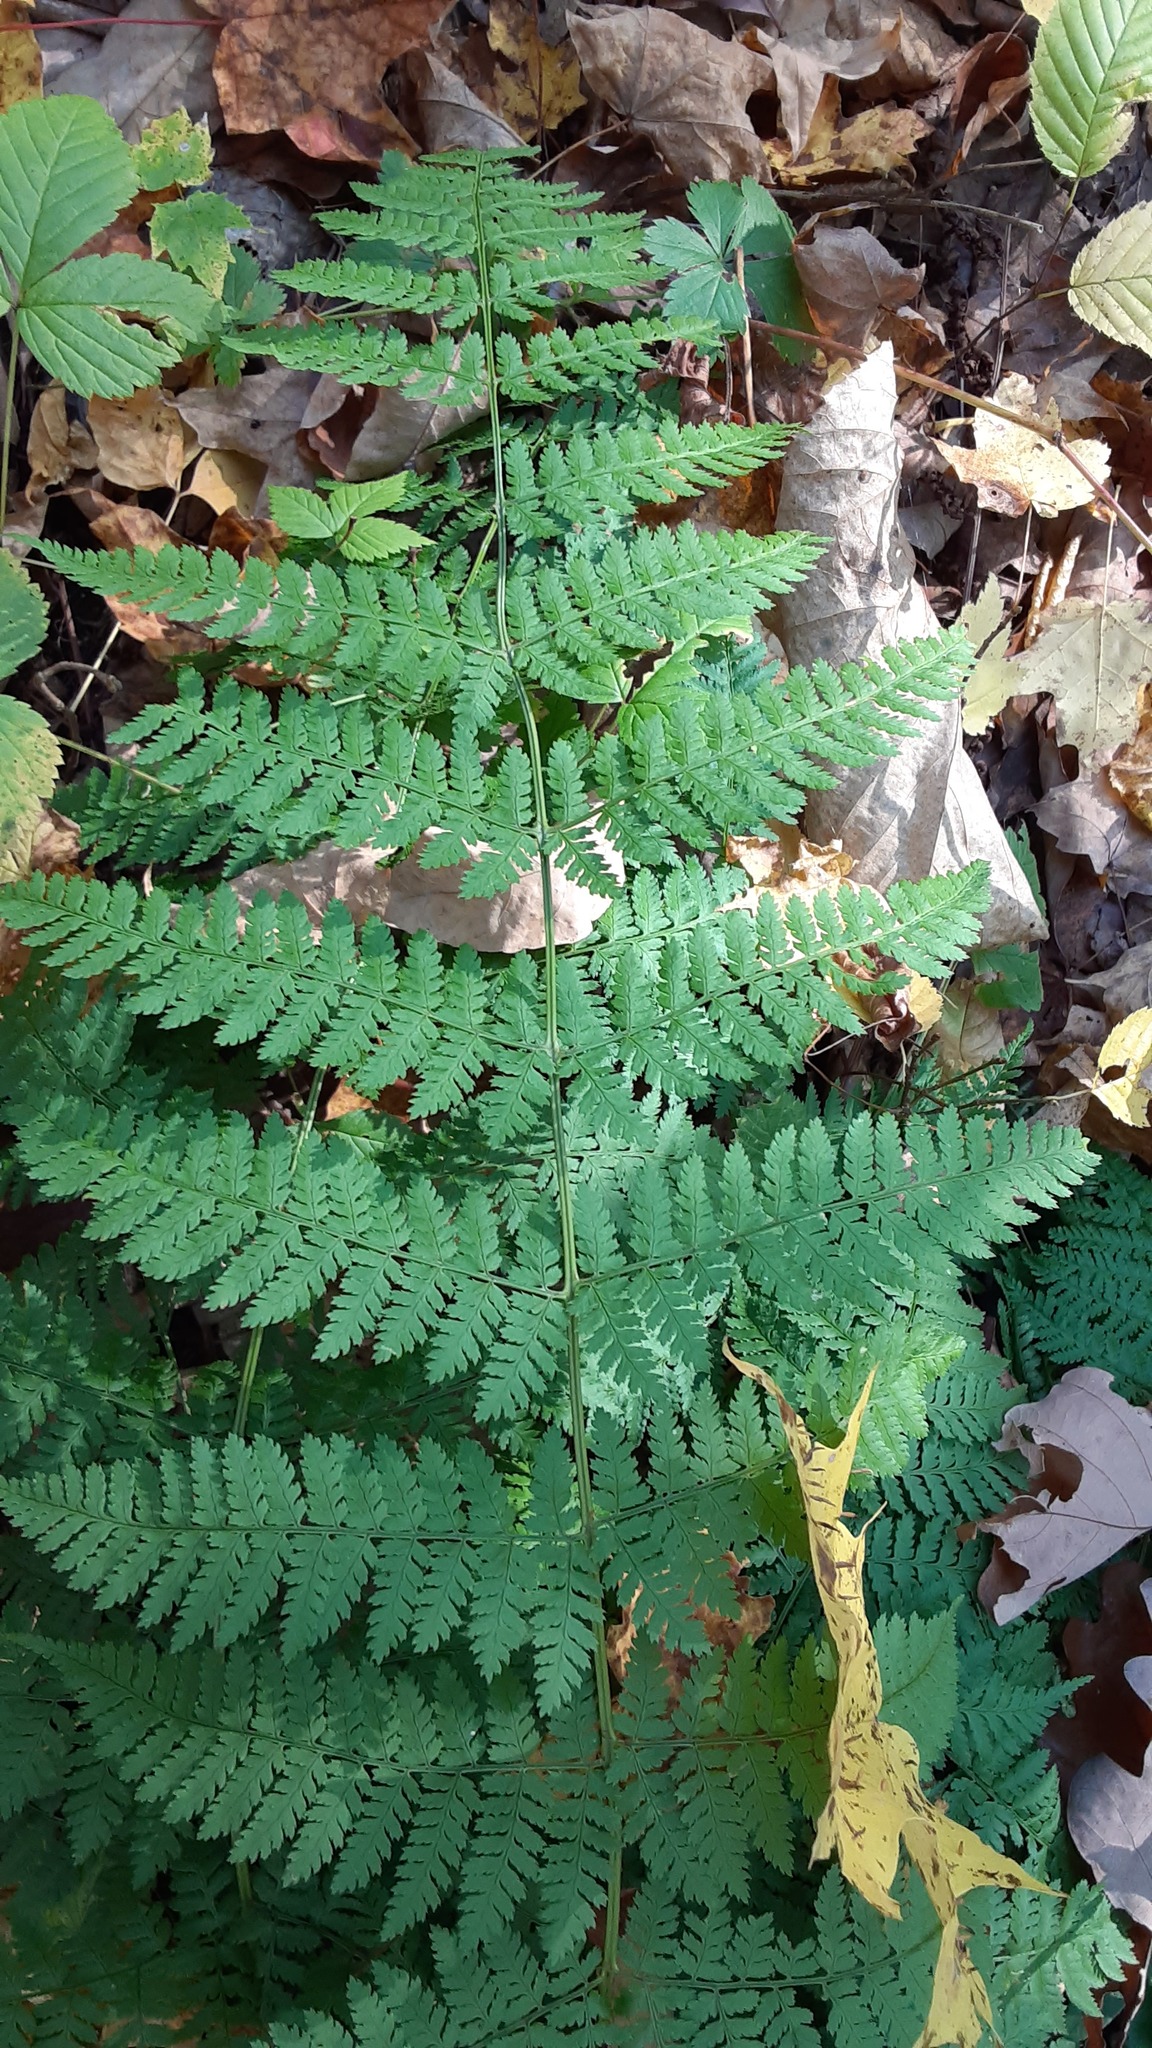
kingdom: Plantae
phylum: Tracheophyta
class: Polypodiopsida
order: Polypodiales
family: Dryopteridaceae
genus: Dryopteris
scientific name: Dryopteris intermedia
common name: Evergreen wood fern
